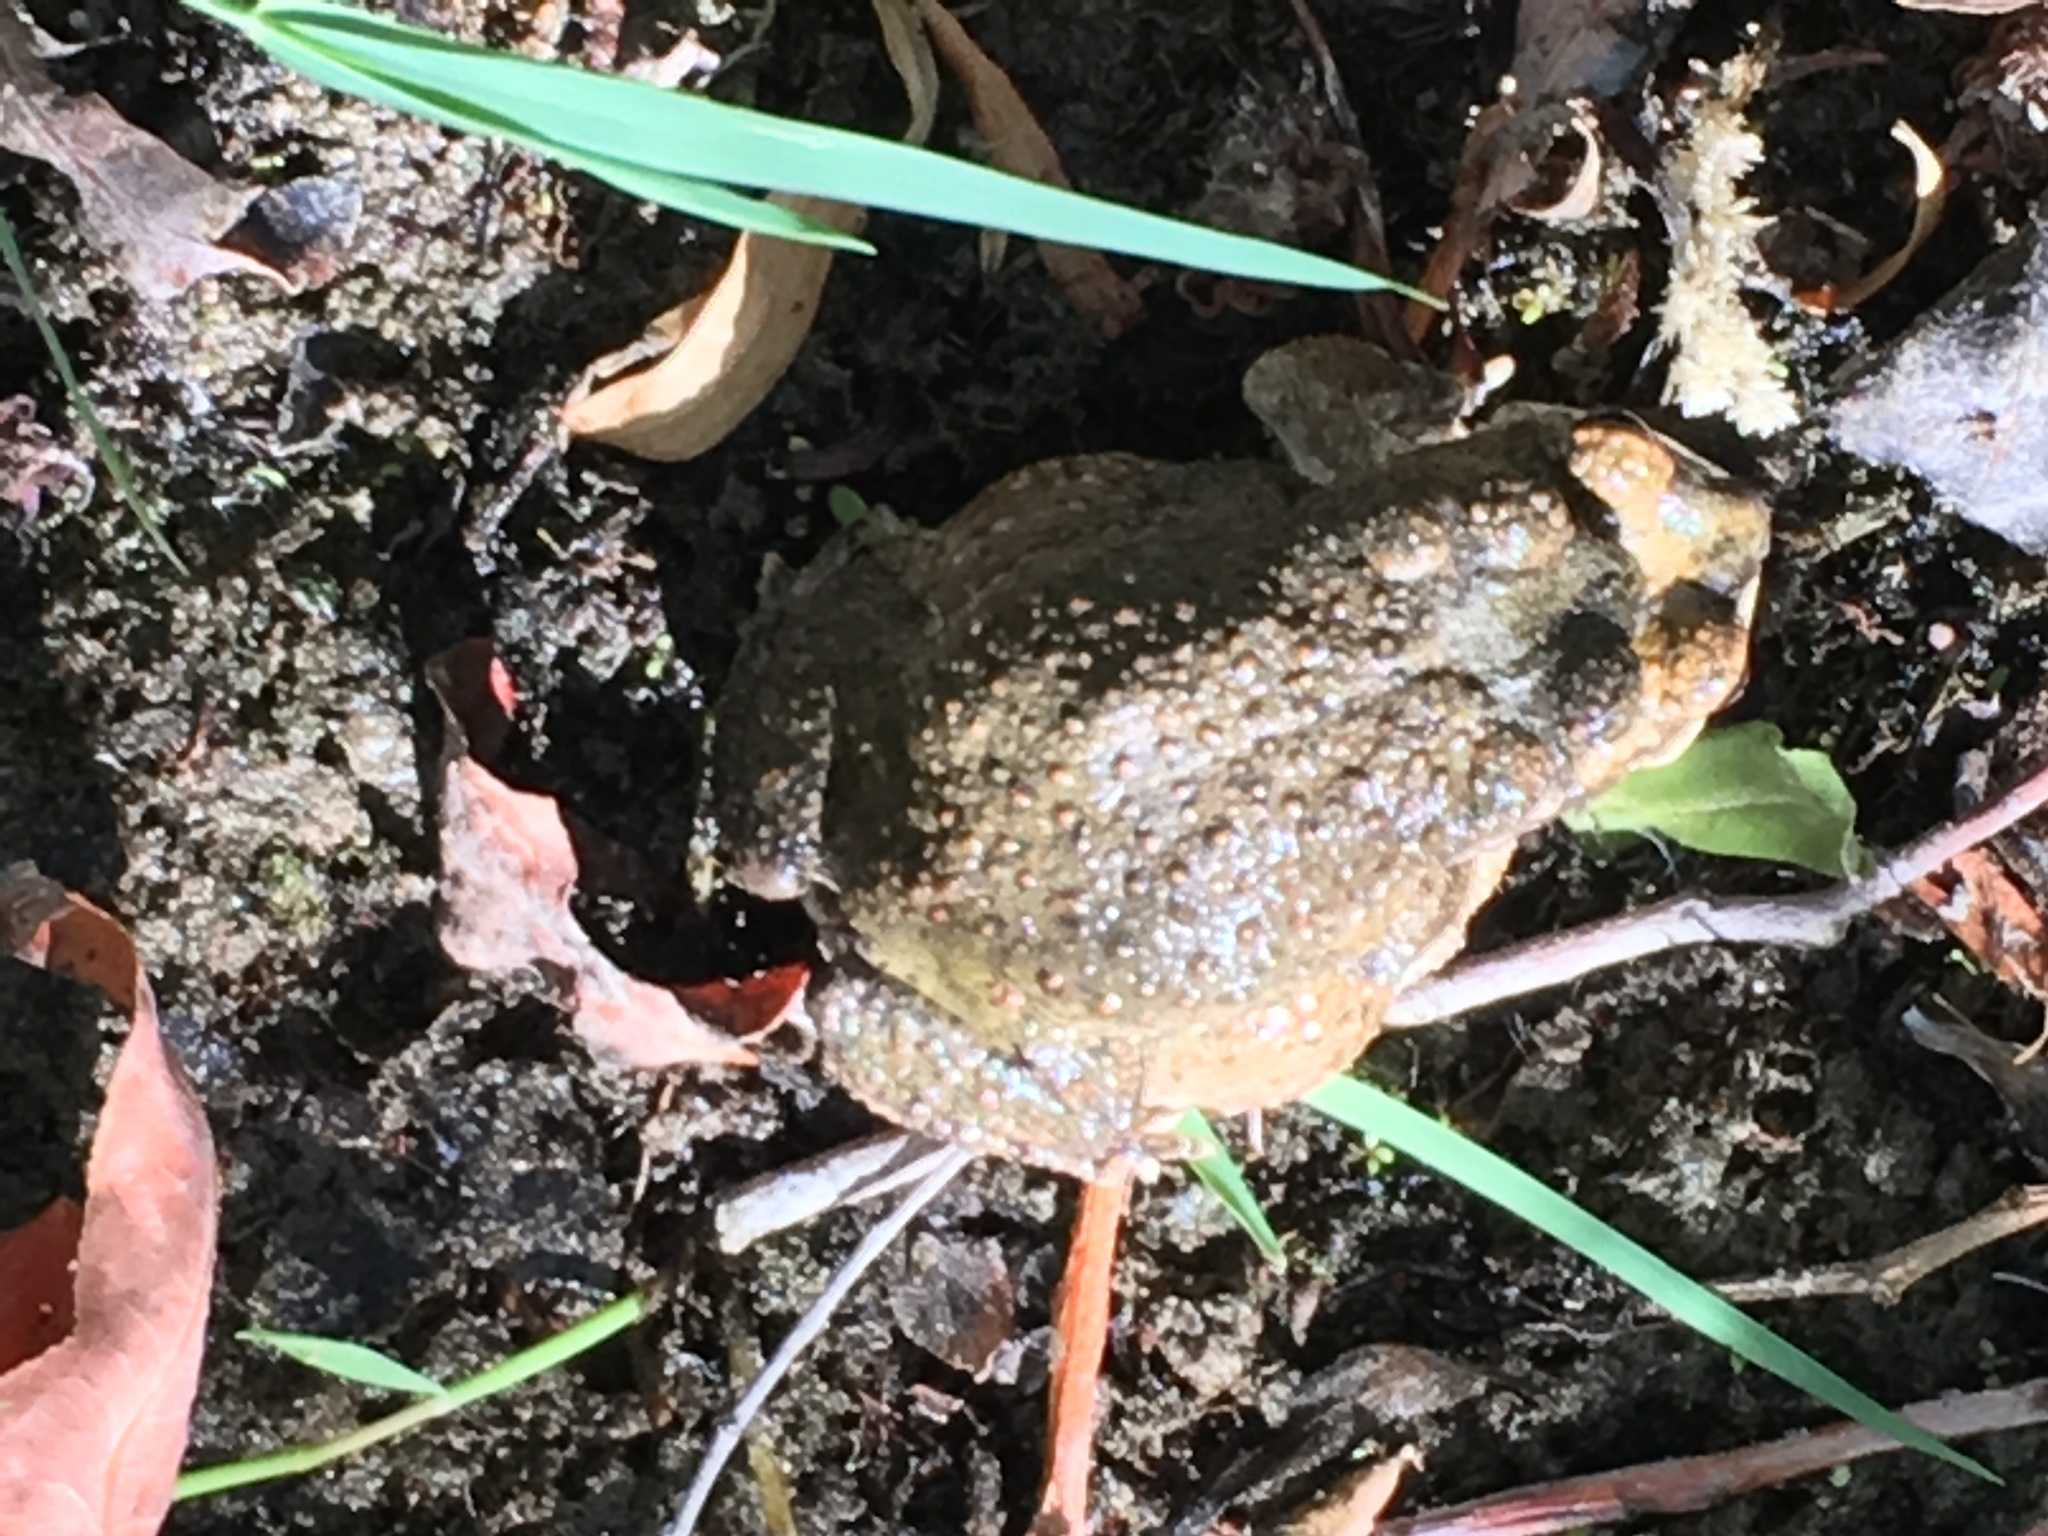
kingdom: Animalia
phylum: Chordata
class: Amphibia
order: Anura
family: Bufonidae
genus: Anaxyrus
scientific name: Anaxyrus punctatus
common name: Red-spotted toad
